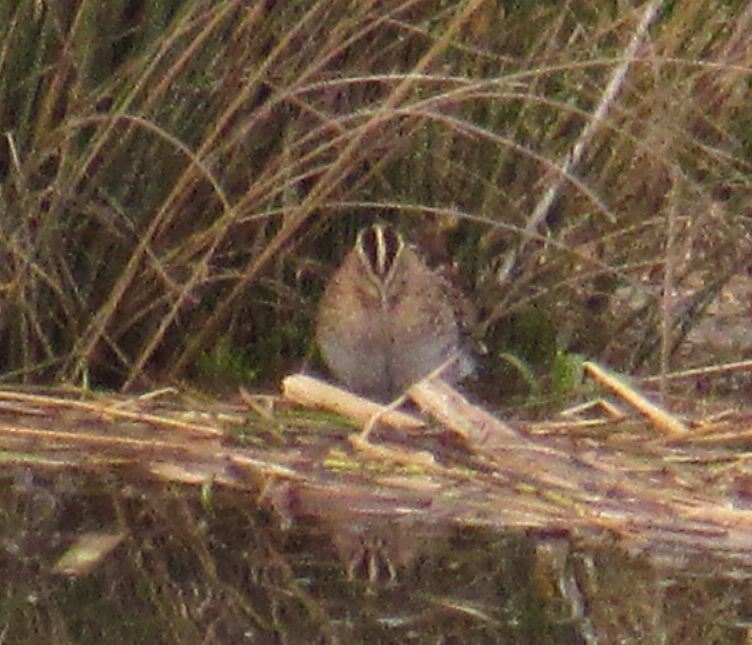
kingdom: Animalia
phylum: Chordata
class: Aves
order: Charadriiformes
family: Scolopacidae
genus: Gallinago
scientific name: Gallinago gallinago
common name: Common snipe
